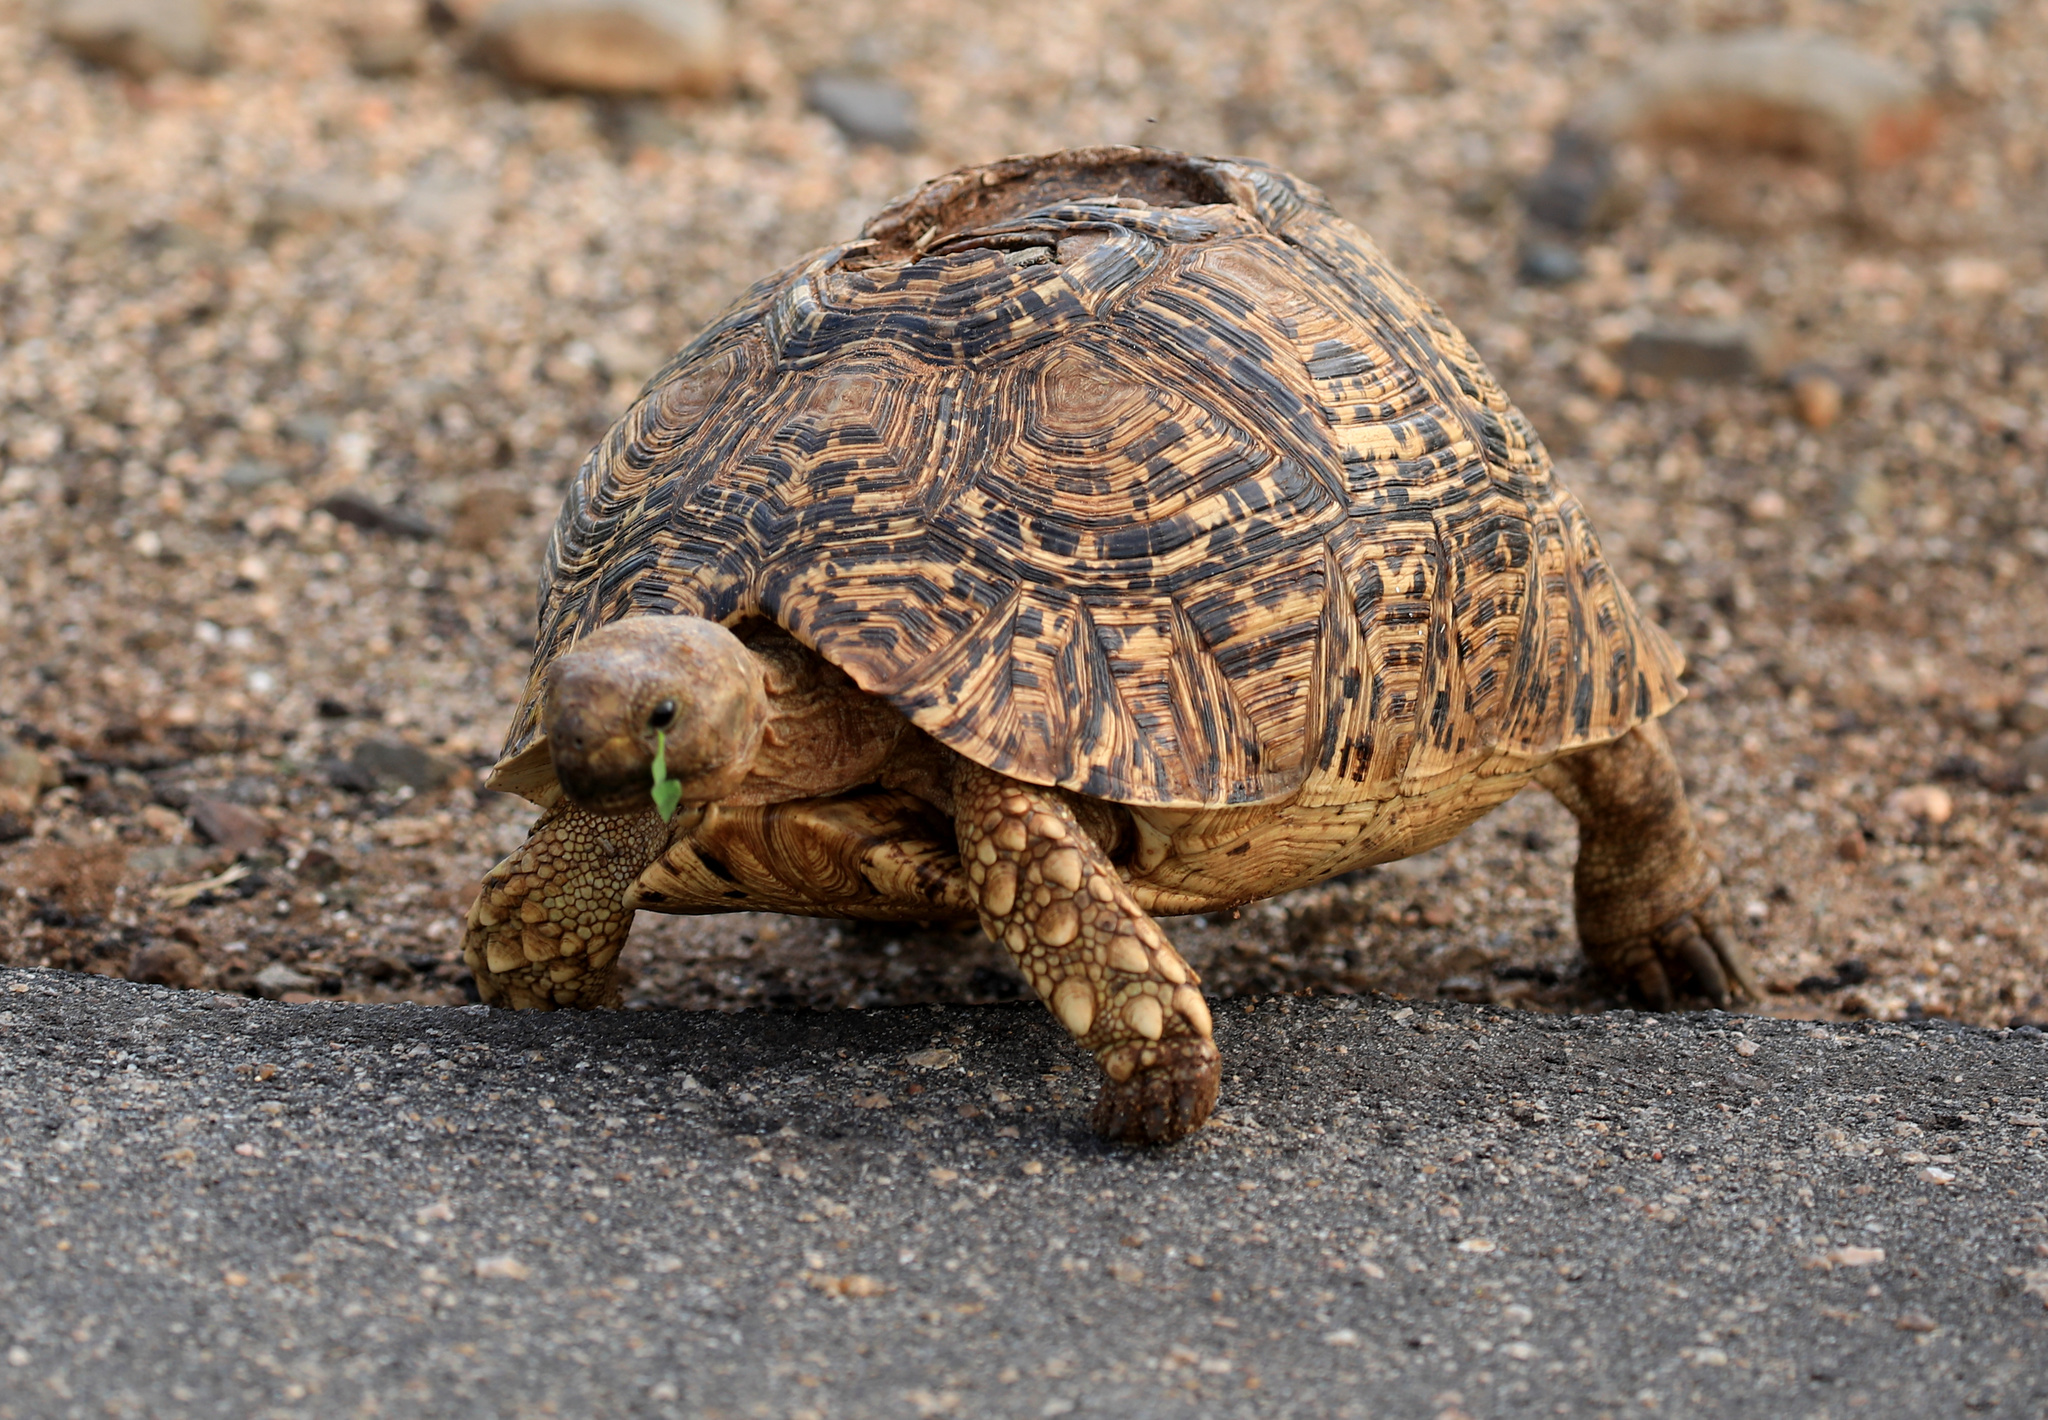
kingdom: Animalia
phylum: Chordata
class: Testudines
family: Testudinidae
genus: Stigmochelys
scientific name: Stigmochelys pardalis
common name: Leopard tortoise
